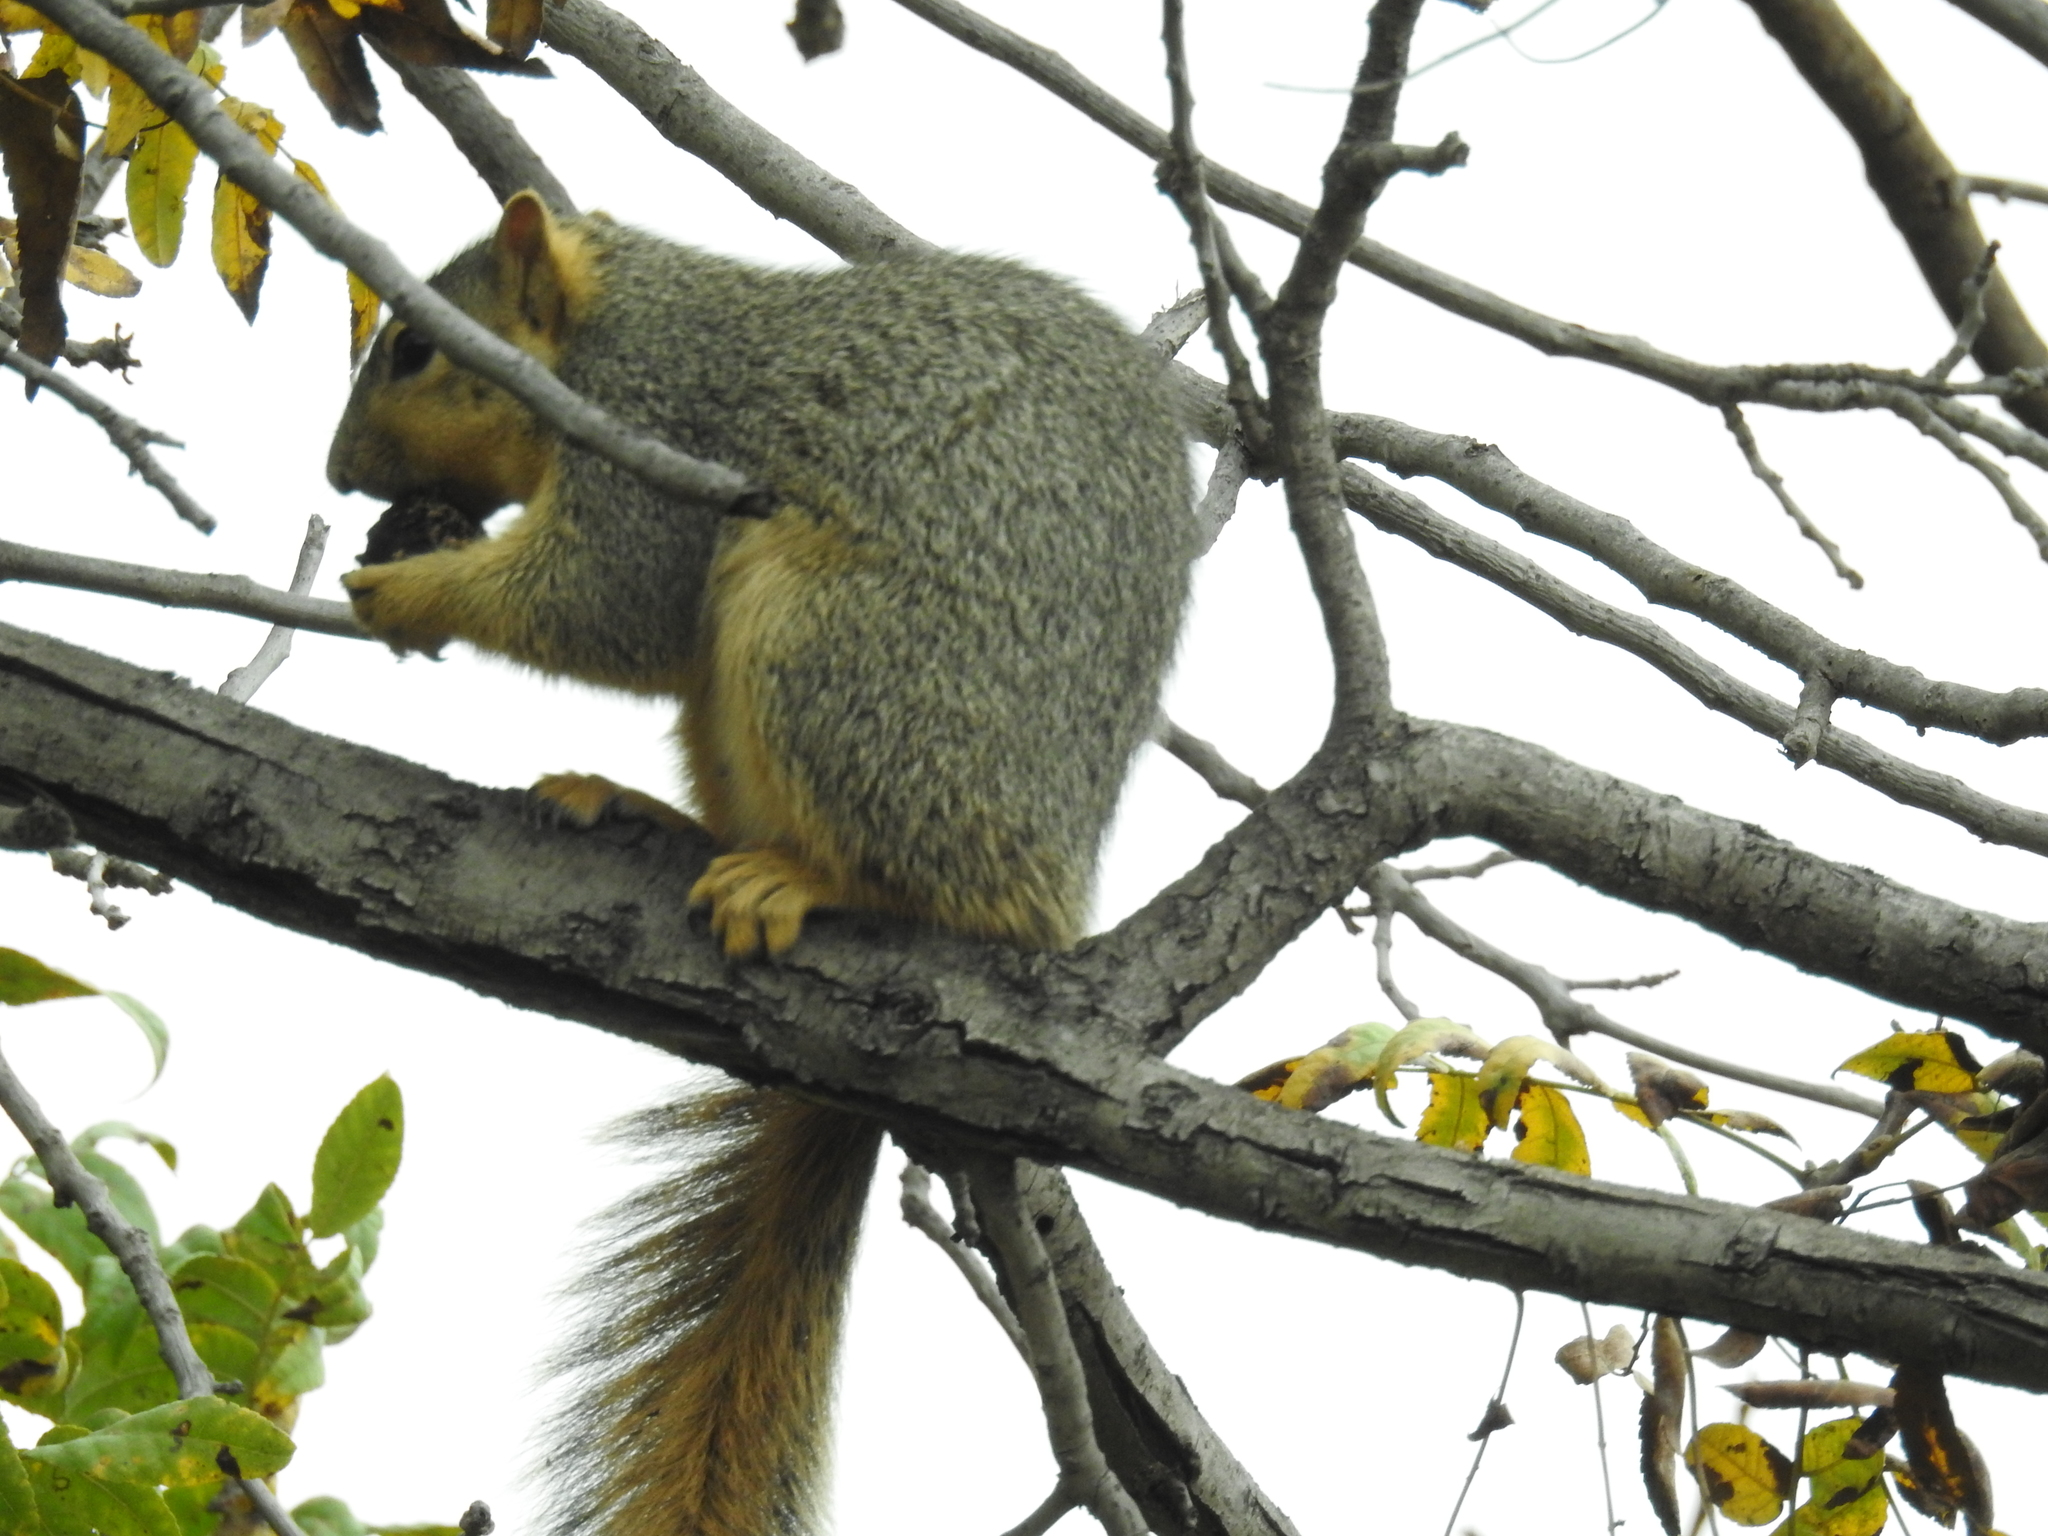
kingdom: Animalia
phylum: Chordata
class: Mammalia
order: Rodentia
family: Sciuridae
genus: Sciurus
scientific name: Sciurus niger
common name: Fox squirrel
